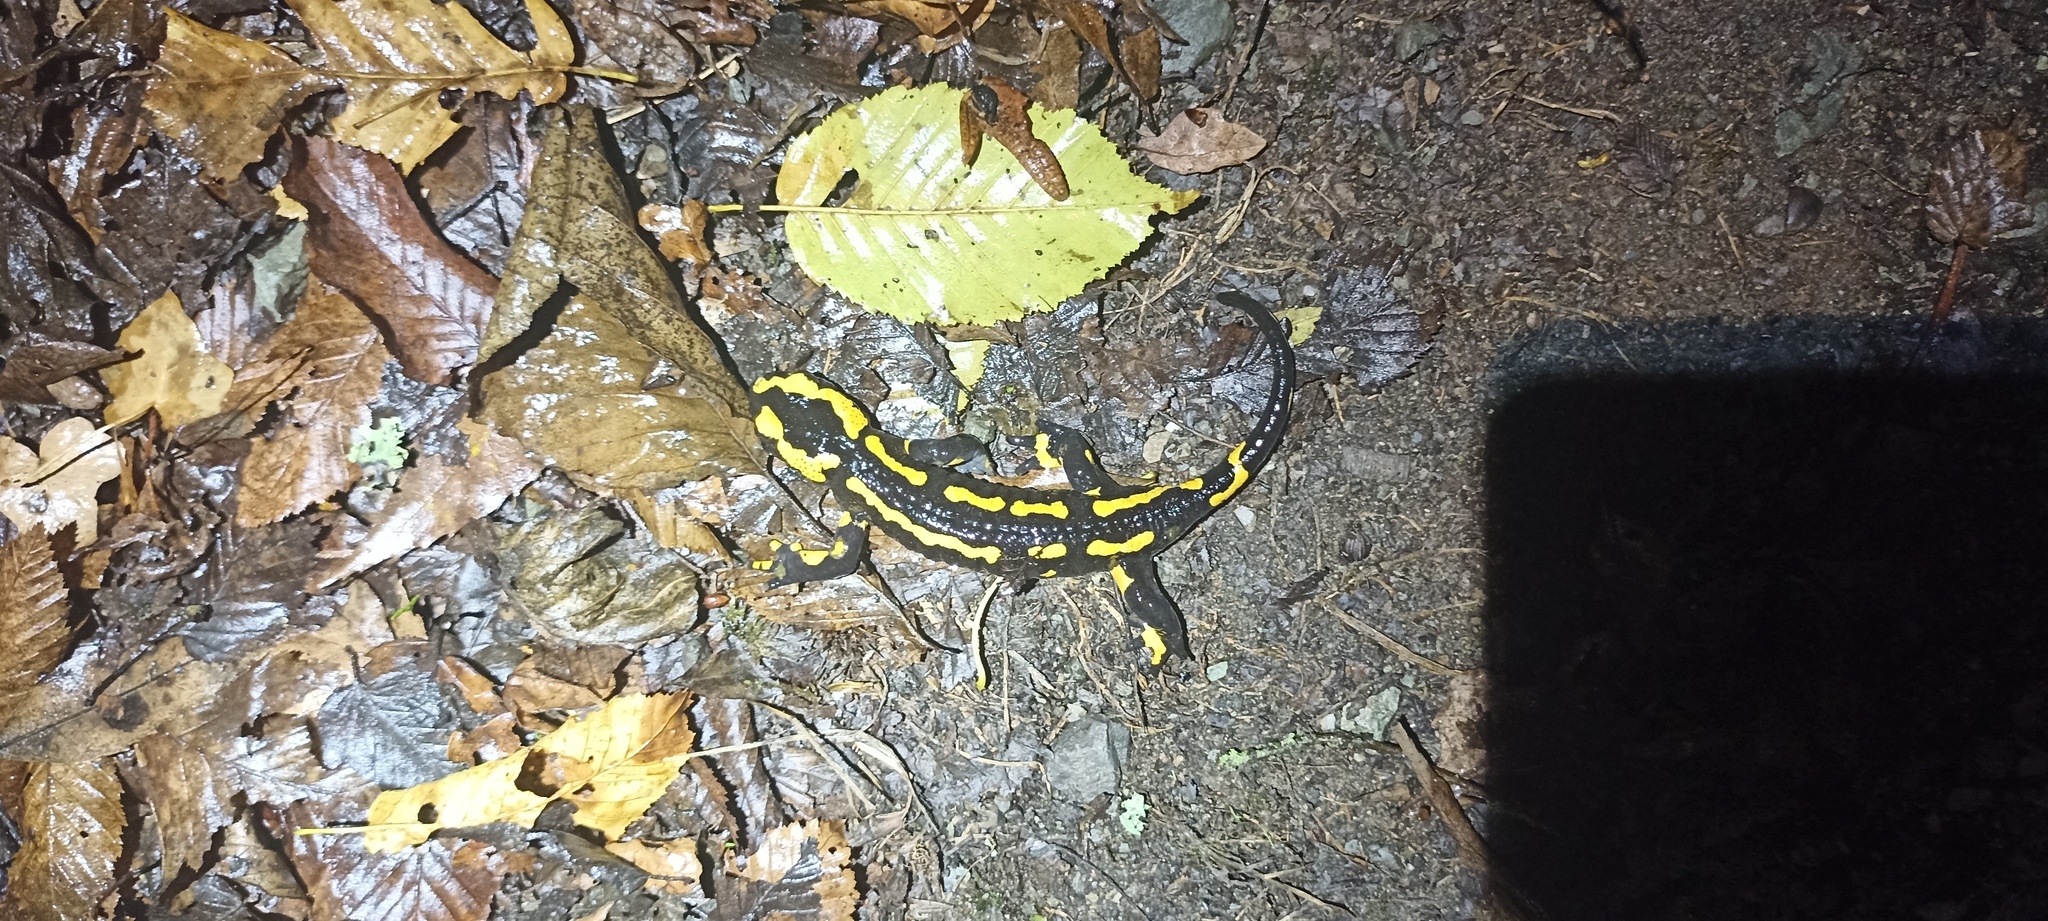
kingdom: Animalia
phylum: Chordata
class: Amphibia
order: Caudata
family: Salamandridae
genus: Salamandra
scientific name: Salamandra salamandra
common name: Fire salamander
